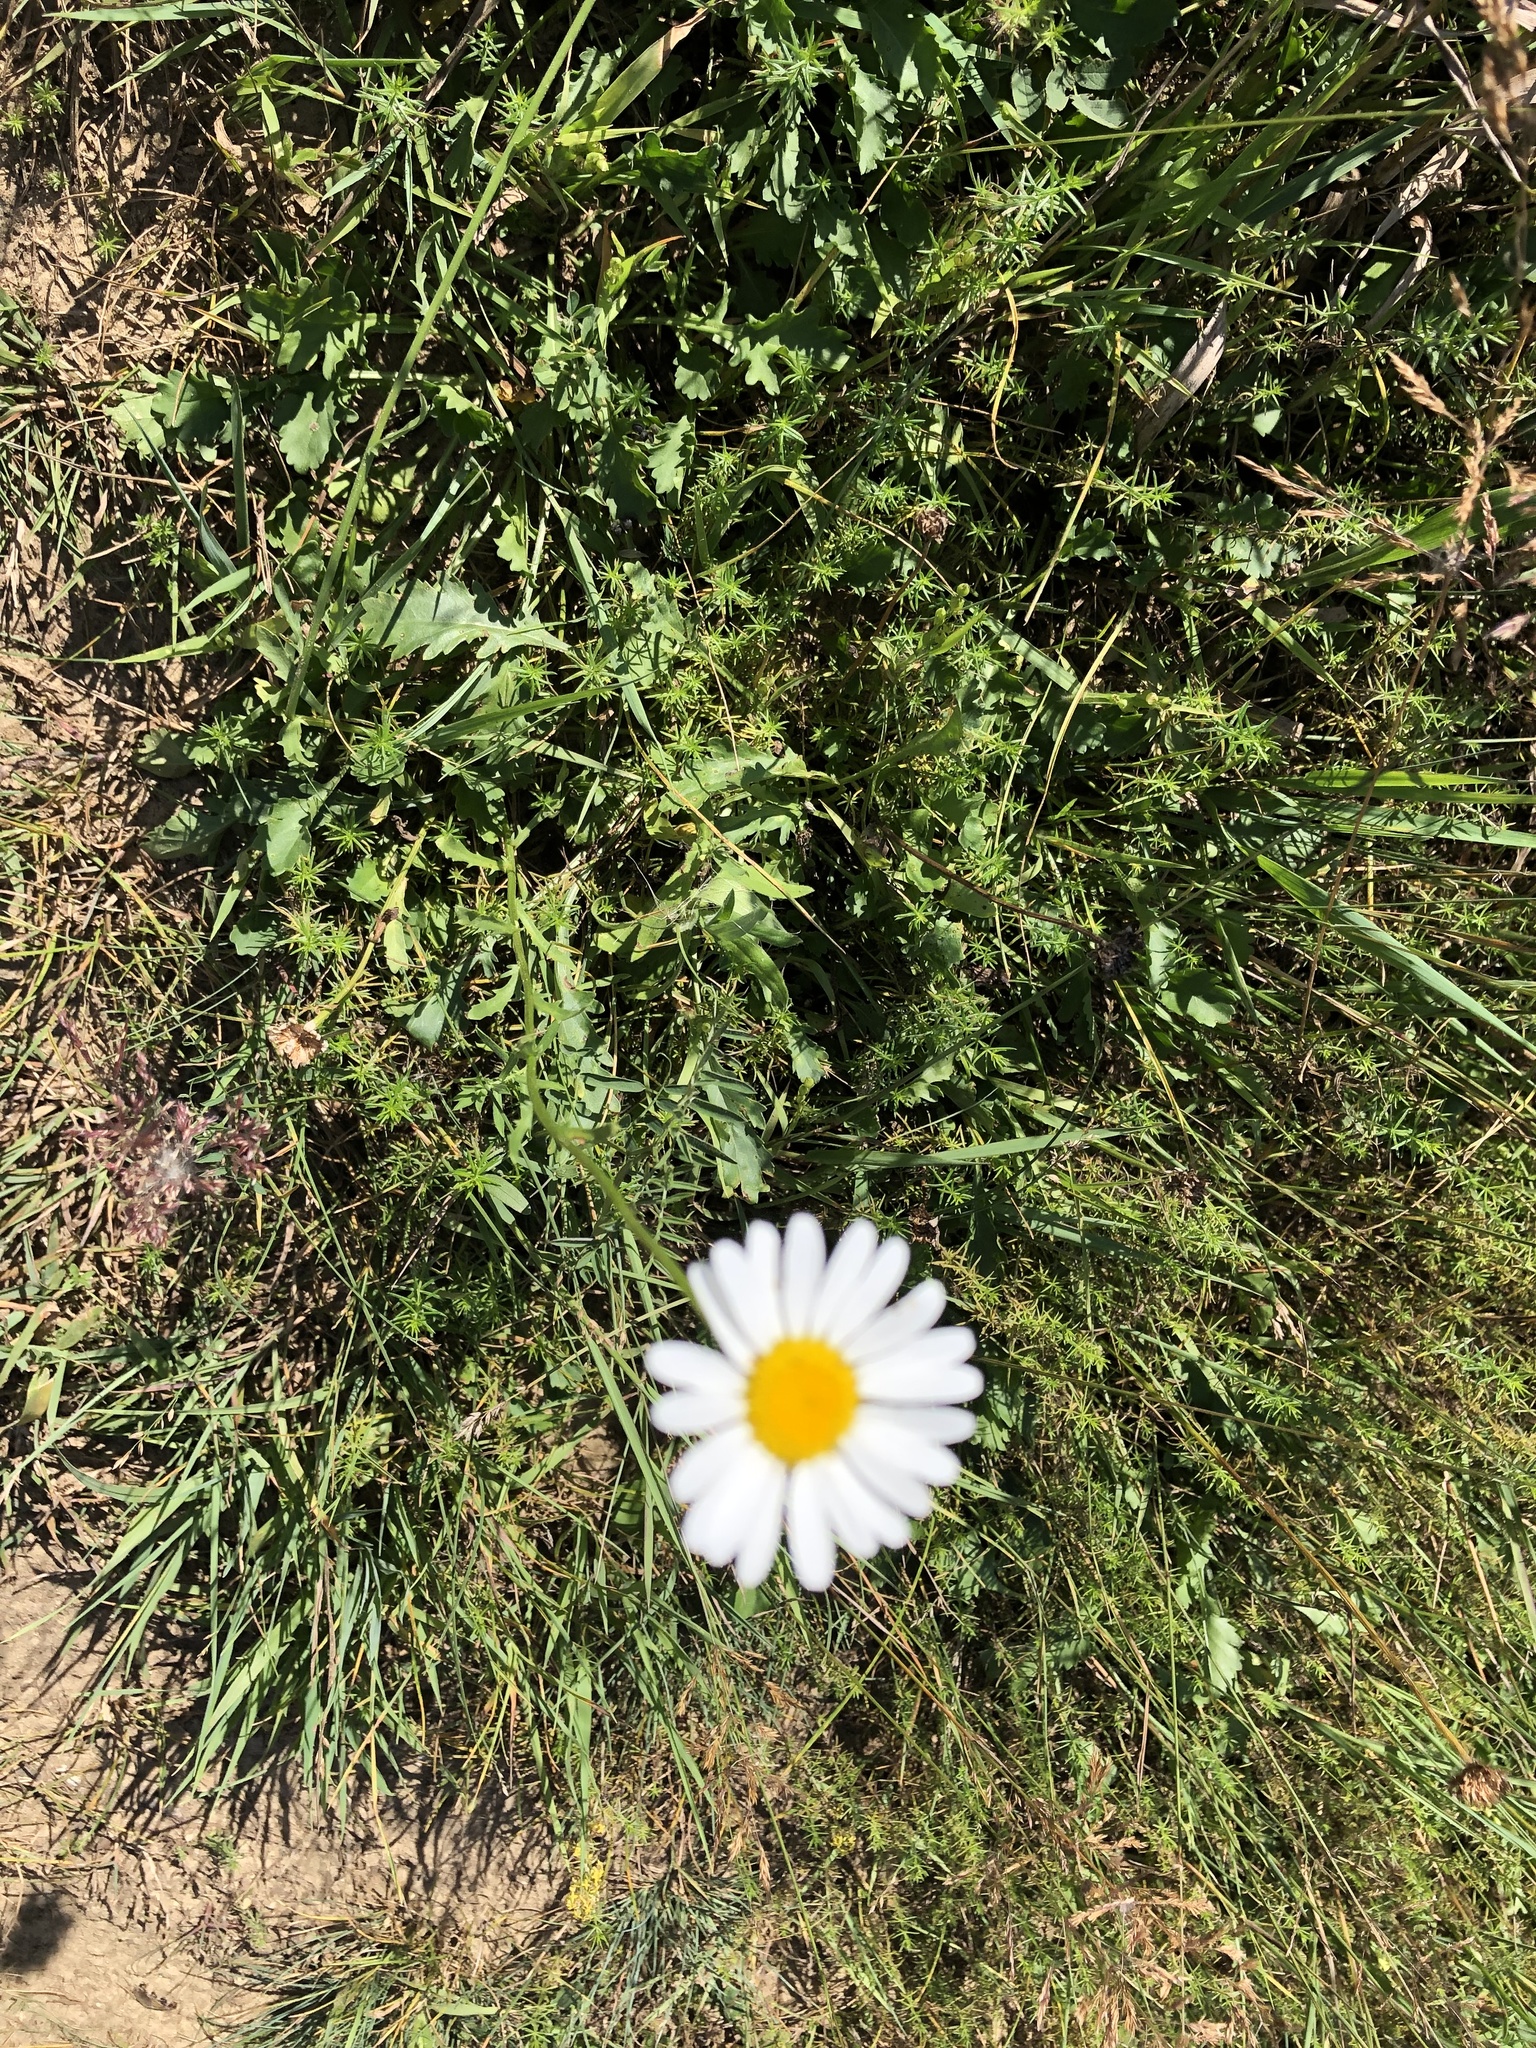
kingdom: Plantae
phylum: Tracheophyta
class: Magnoliopsida
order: Asterales
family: Asteraceae
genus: Leucanthemum
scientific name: Leucanthemum vulgare
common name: Oxeye daisy
